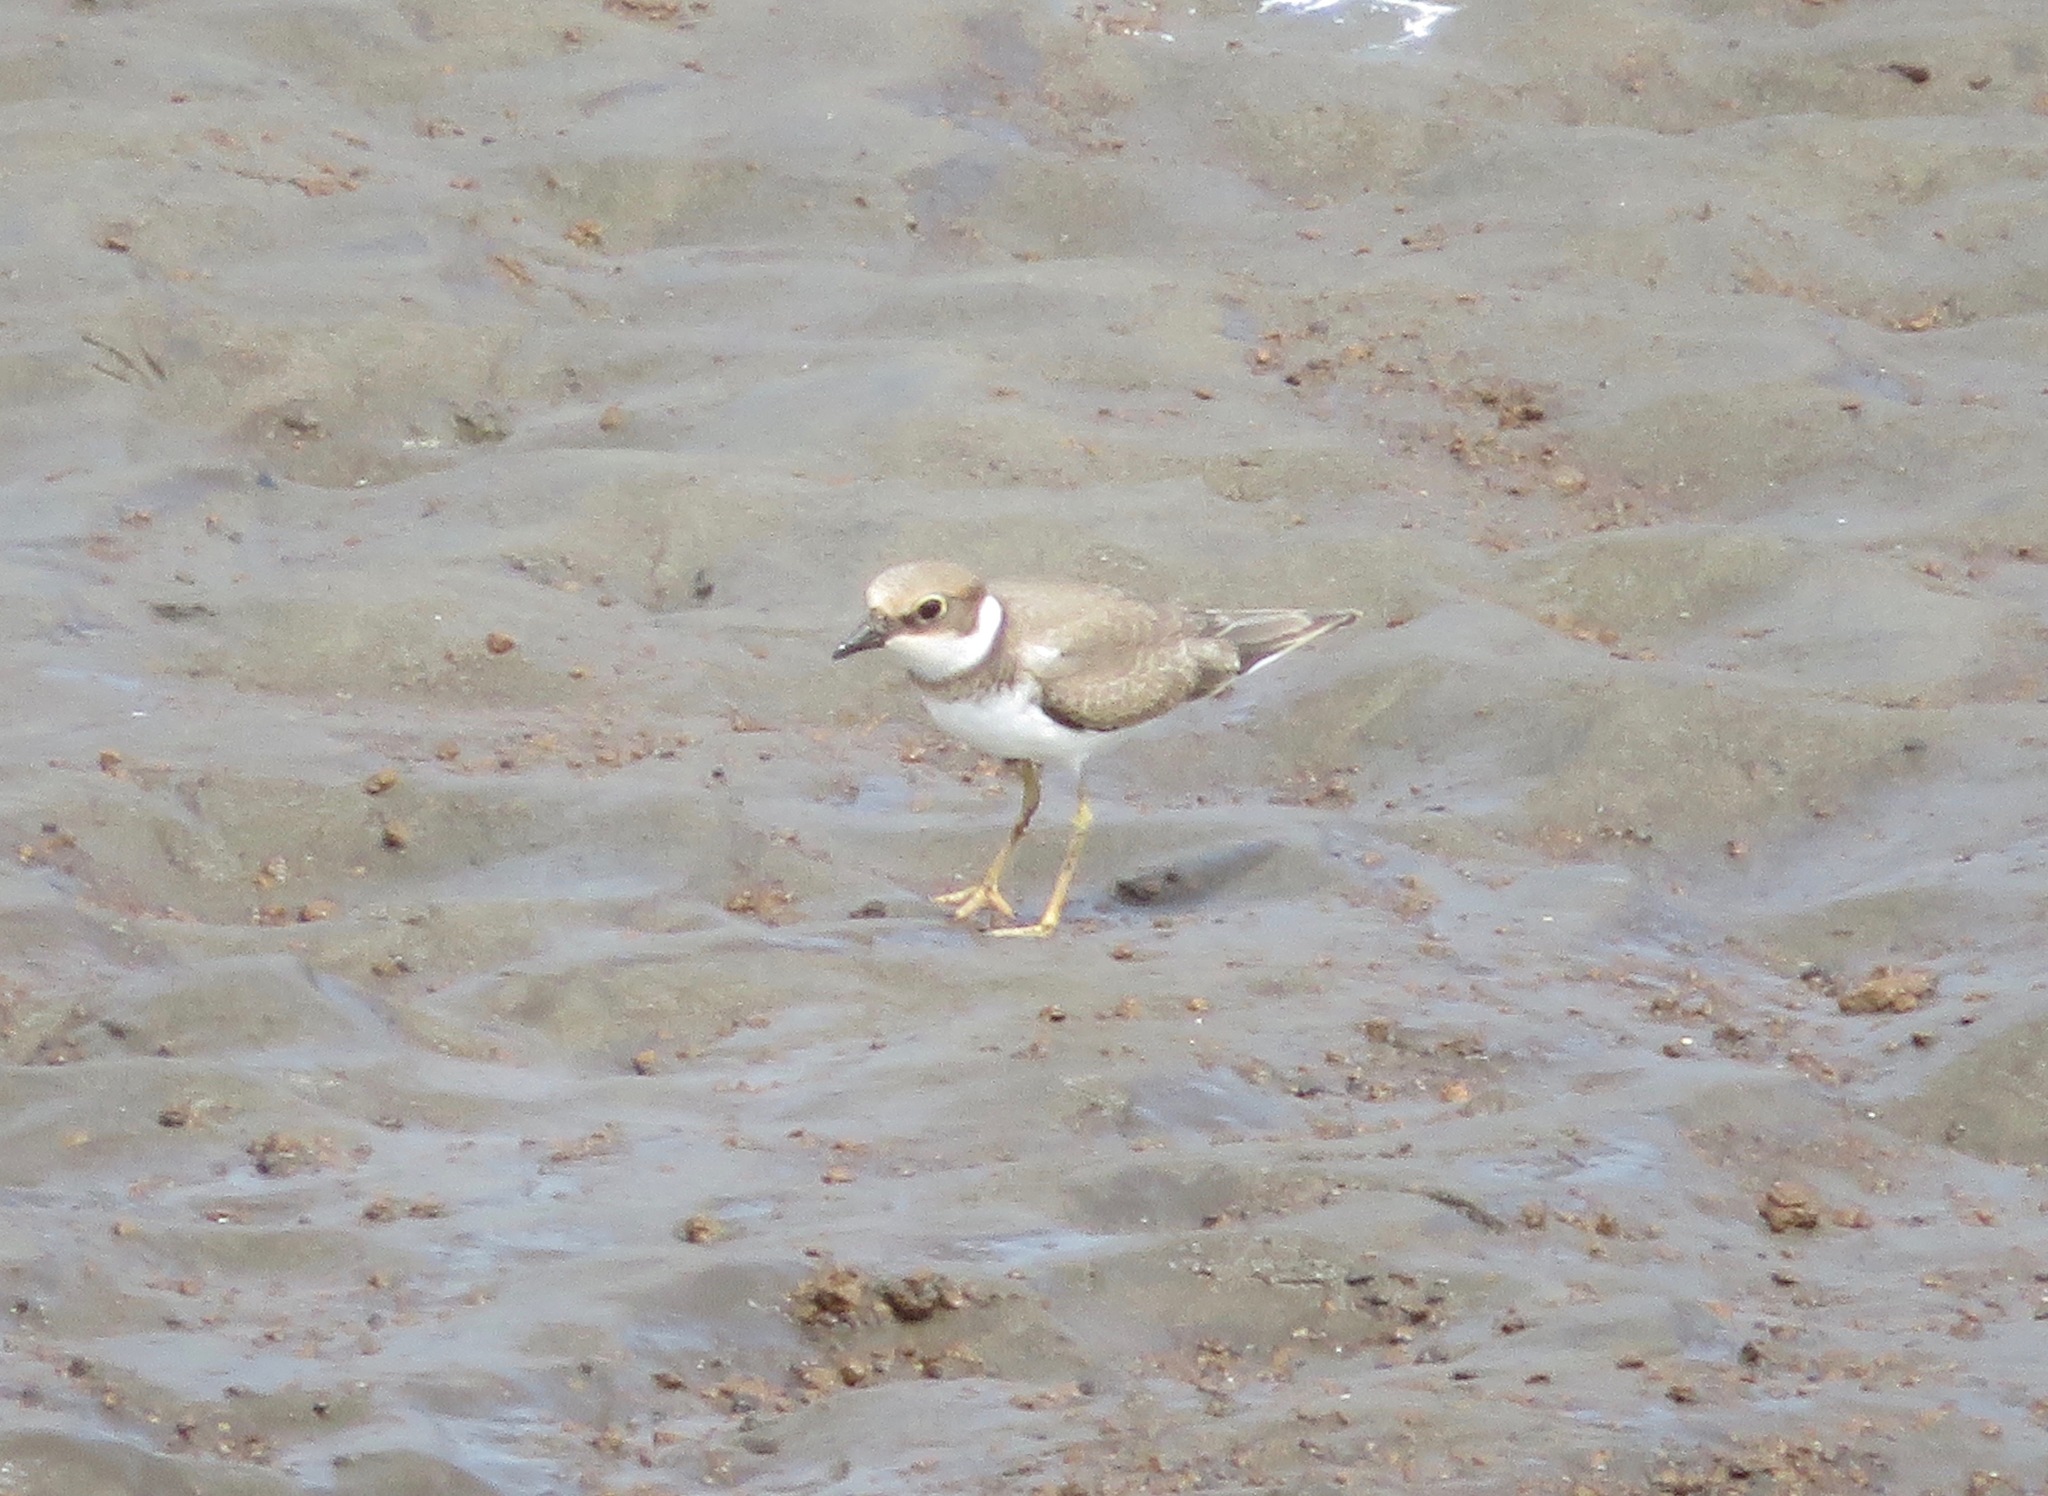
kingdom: Animalia
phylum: Chordata
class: Aves
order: Charadriiformes
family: Charadriidae
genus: Charadrius
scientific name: Charadrius alexandrinus
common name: Kentish plover
